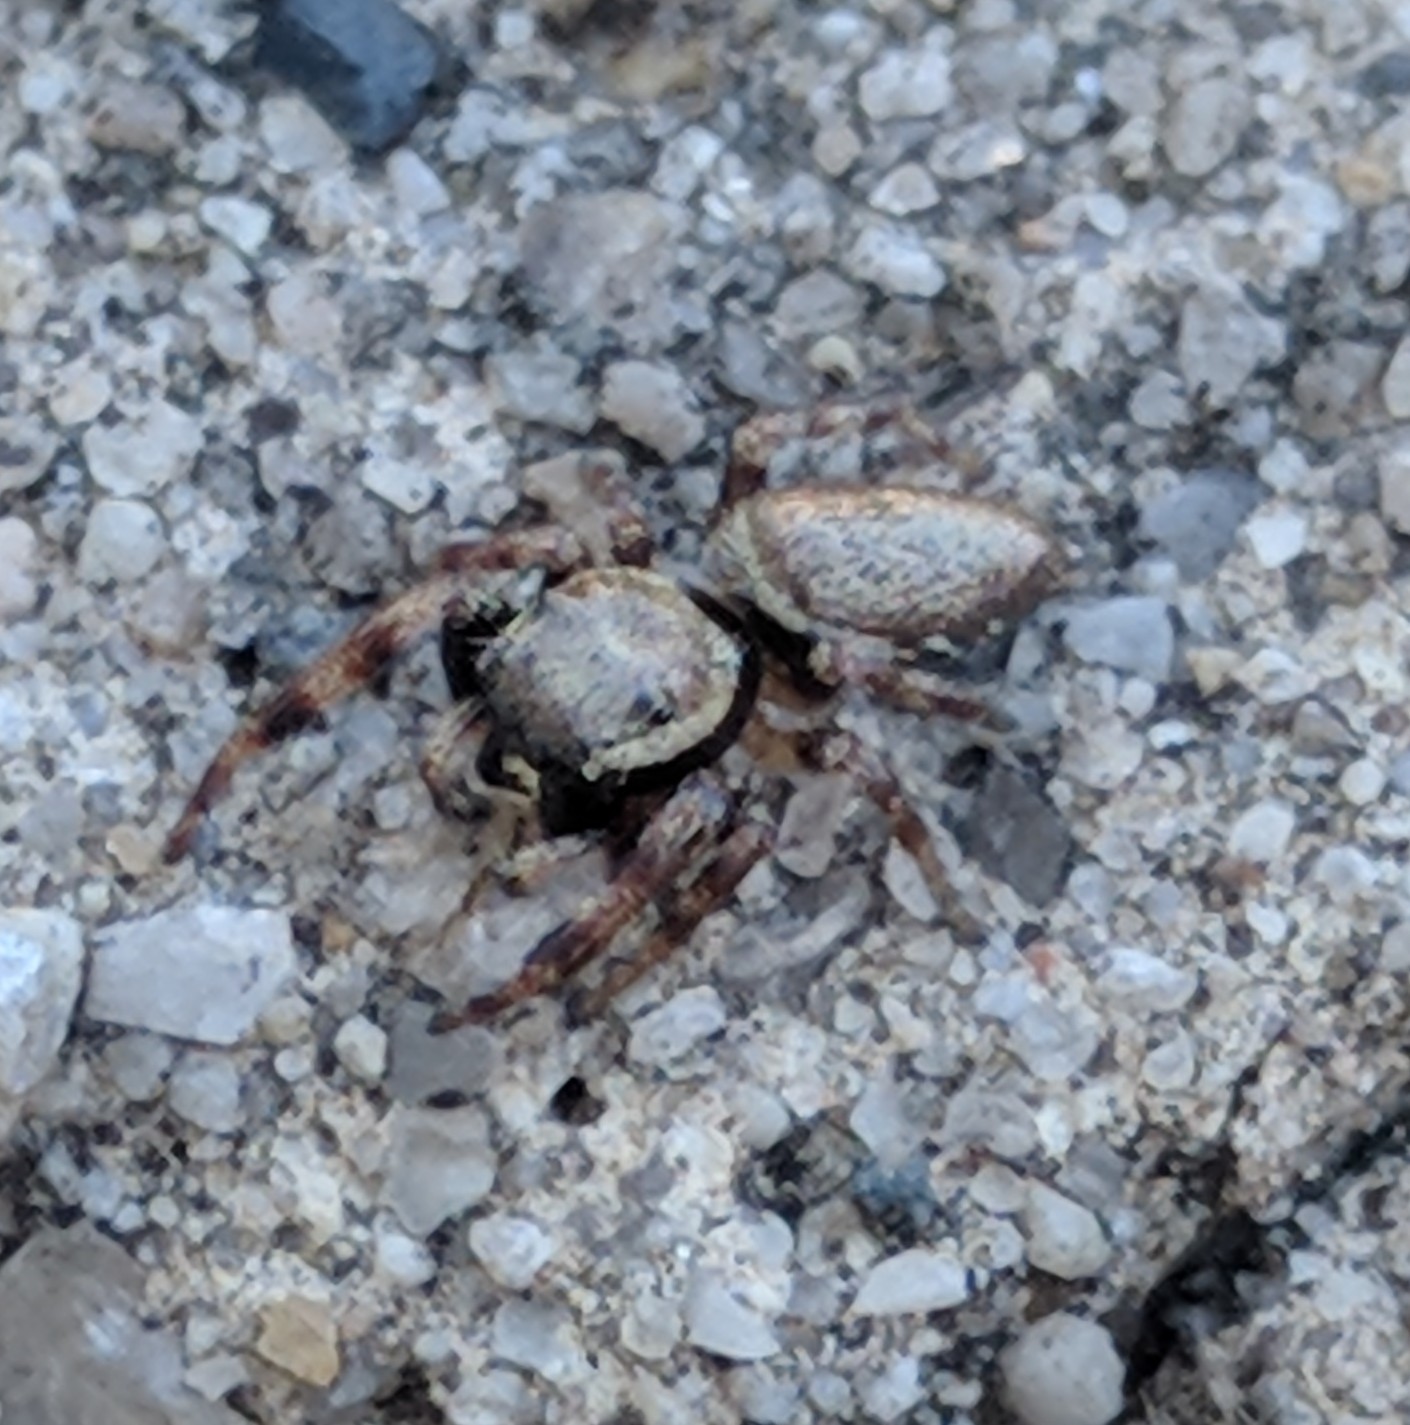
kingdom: Animalia
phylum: Arthropoda
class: Arachnida
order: Araneae
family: Salticidae
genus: Eris
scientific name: Eris floridana
